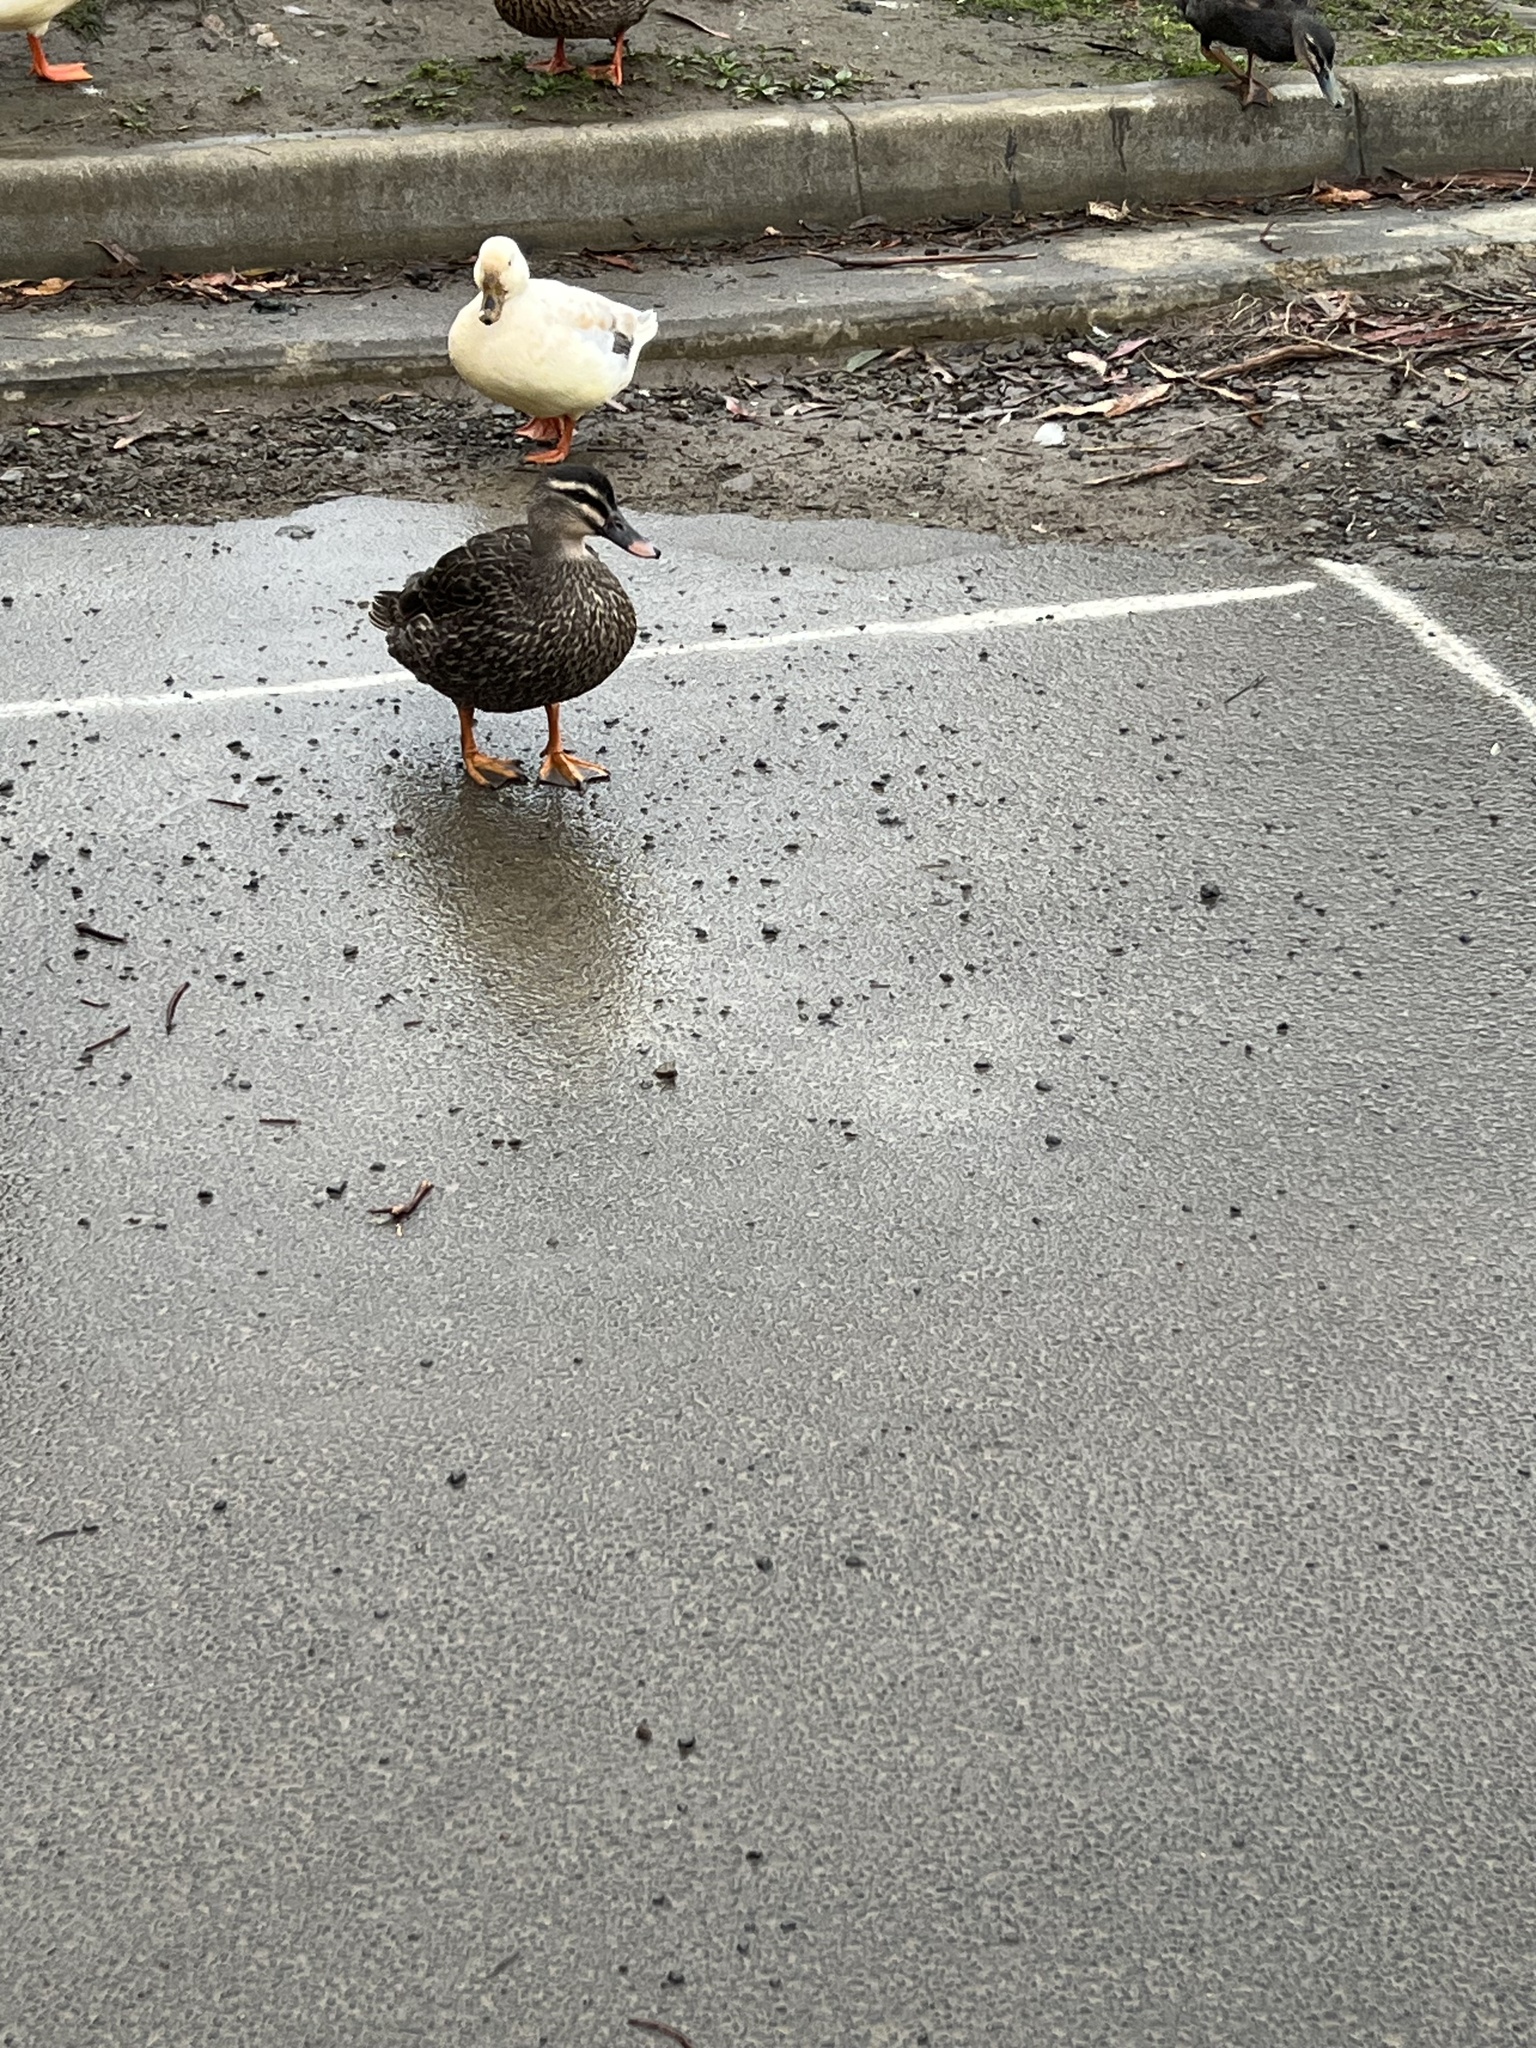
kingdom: Animalia
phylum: Chordata
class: Aves
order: Anseriformes
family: Anatidae
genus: Anas
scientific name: Anas
